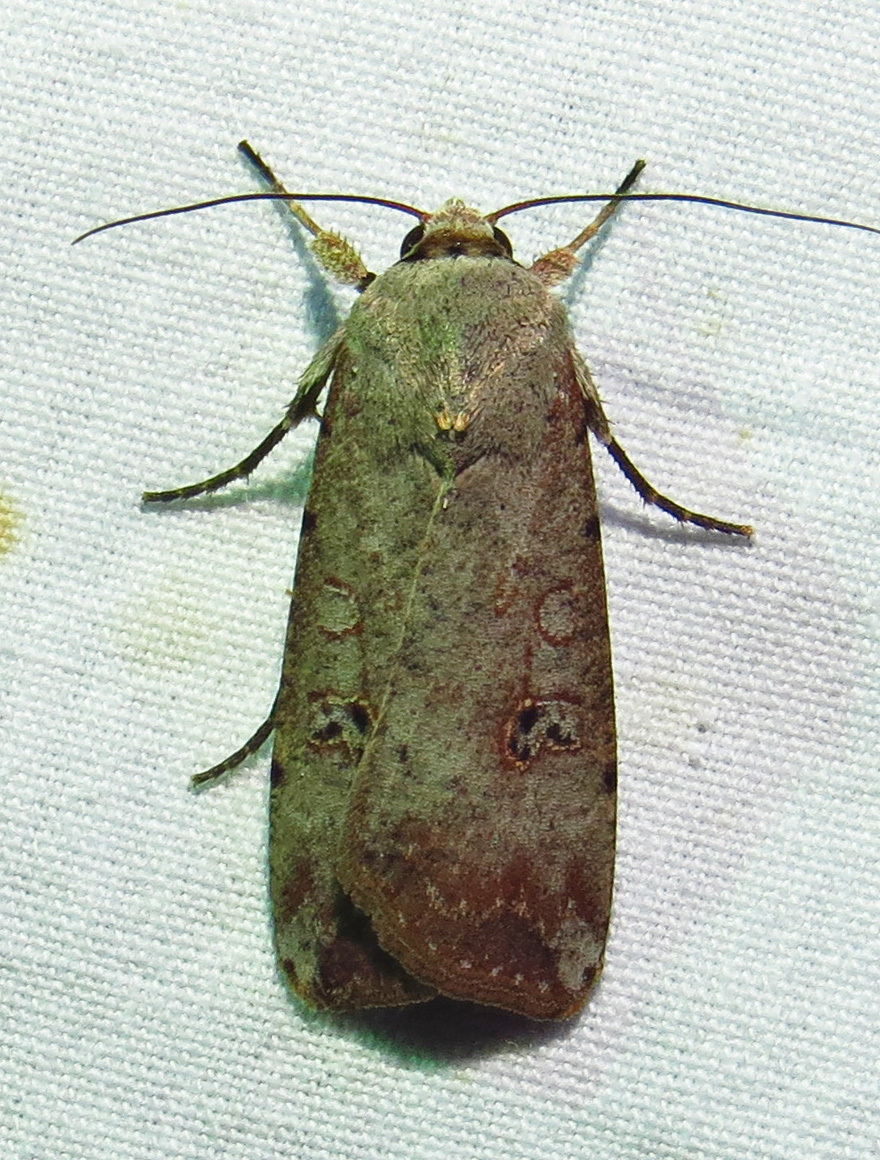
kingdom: Animalia
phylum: Arthropoda
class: Insecta
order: Lepidoptera
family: Noctuidae
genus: Anicla
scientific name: Anicla infecta
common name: Green cutworm
